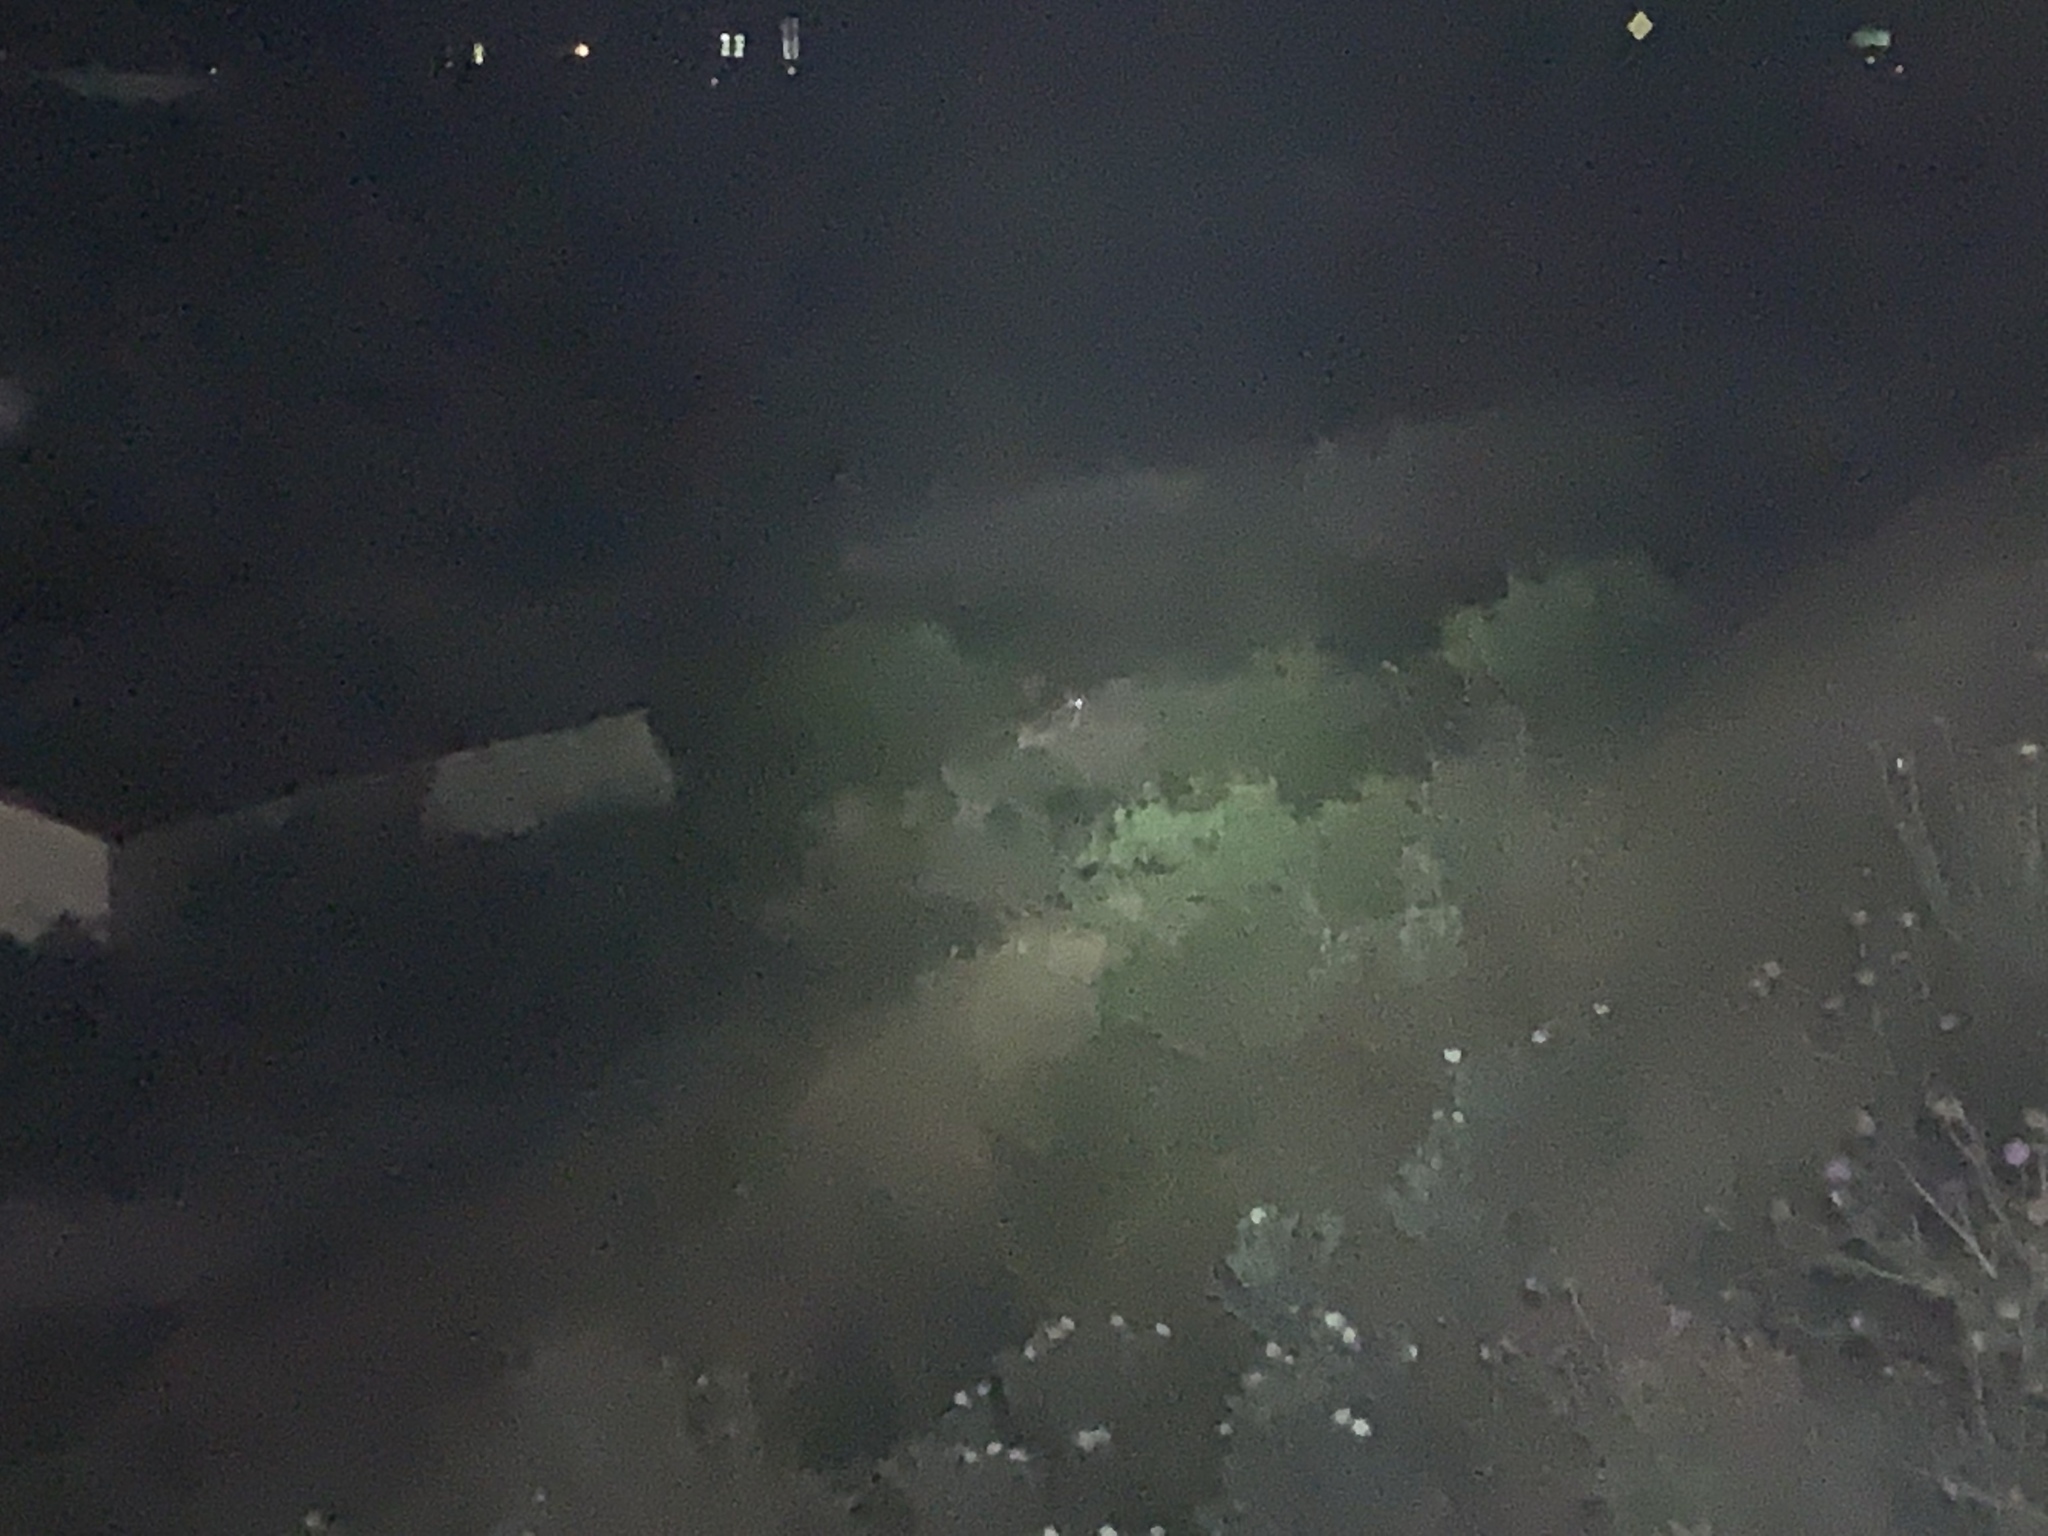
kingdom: Animalia
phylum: Chordata
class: Mammalia
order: Artiodactyla
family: Cervidae
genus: Odocoileus
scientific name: Odocoileus virginianus
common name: White-tailed deer
